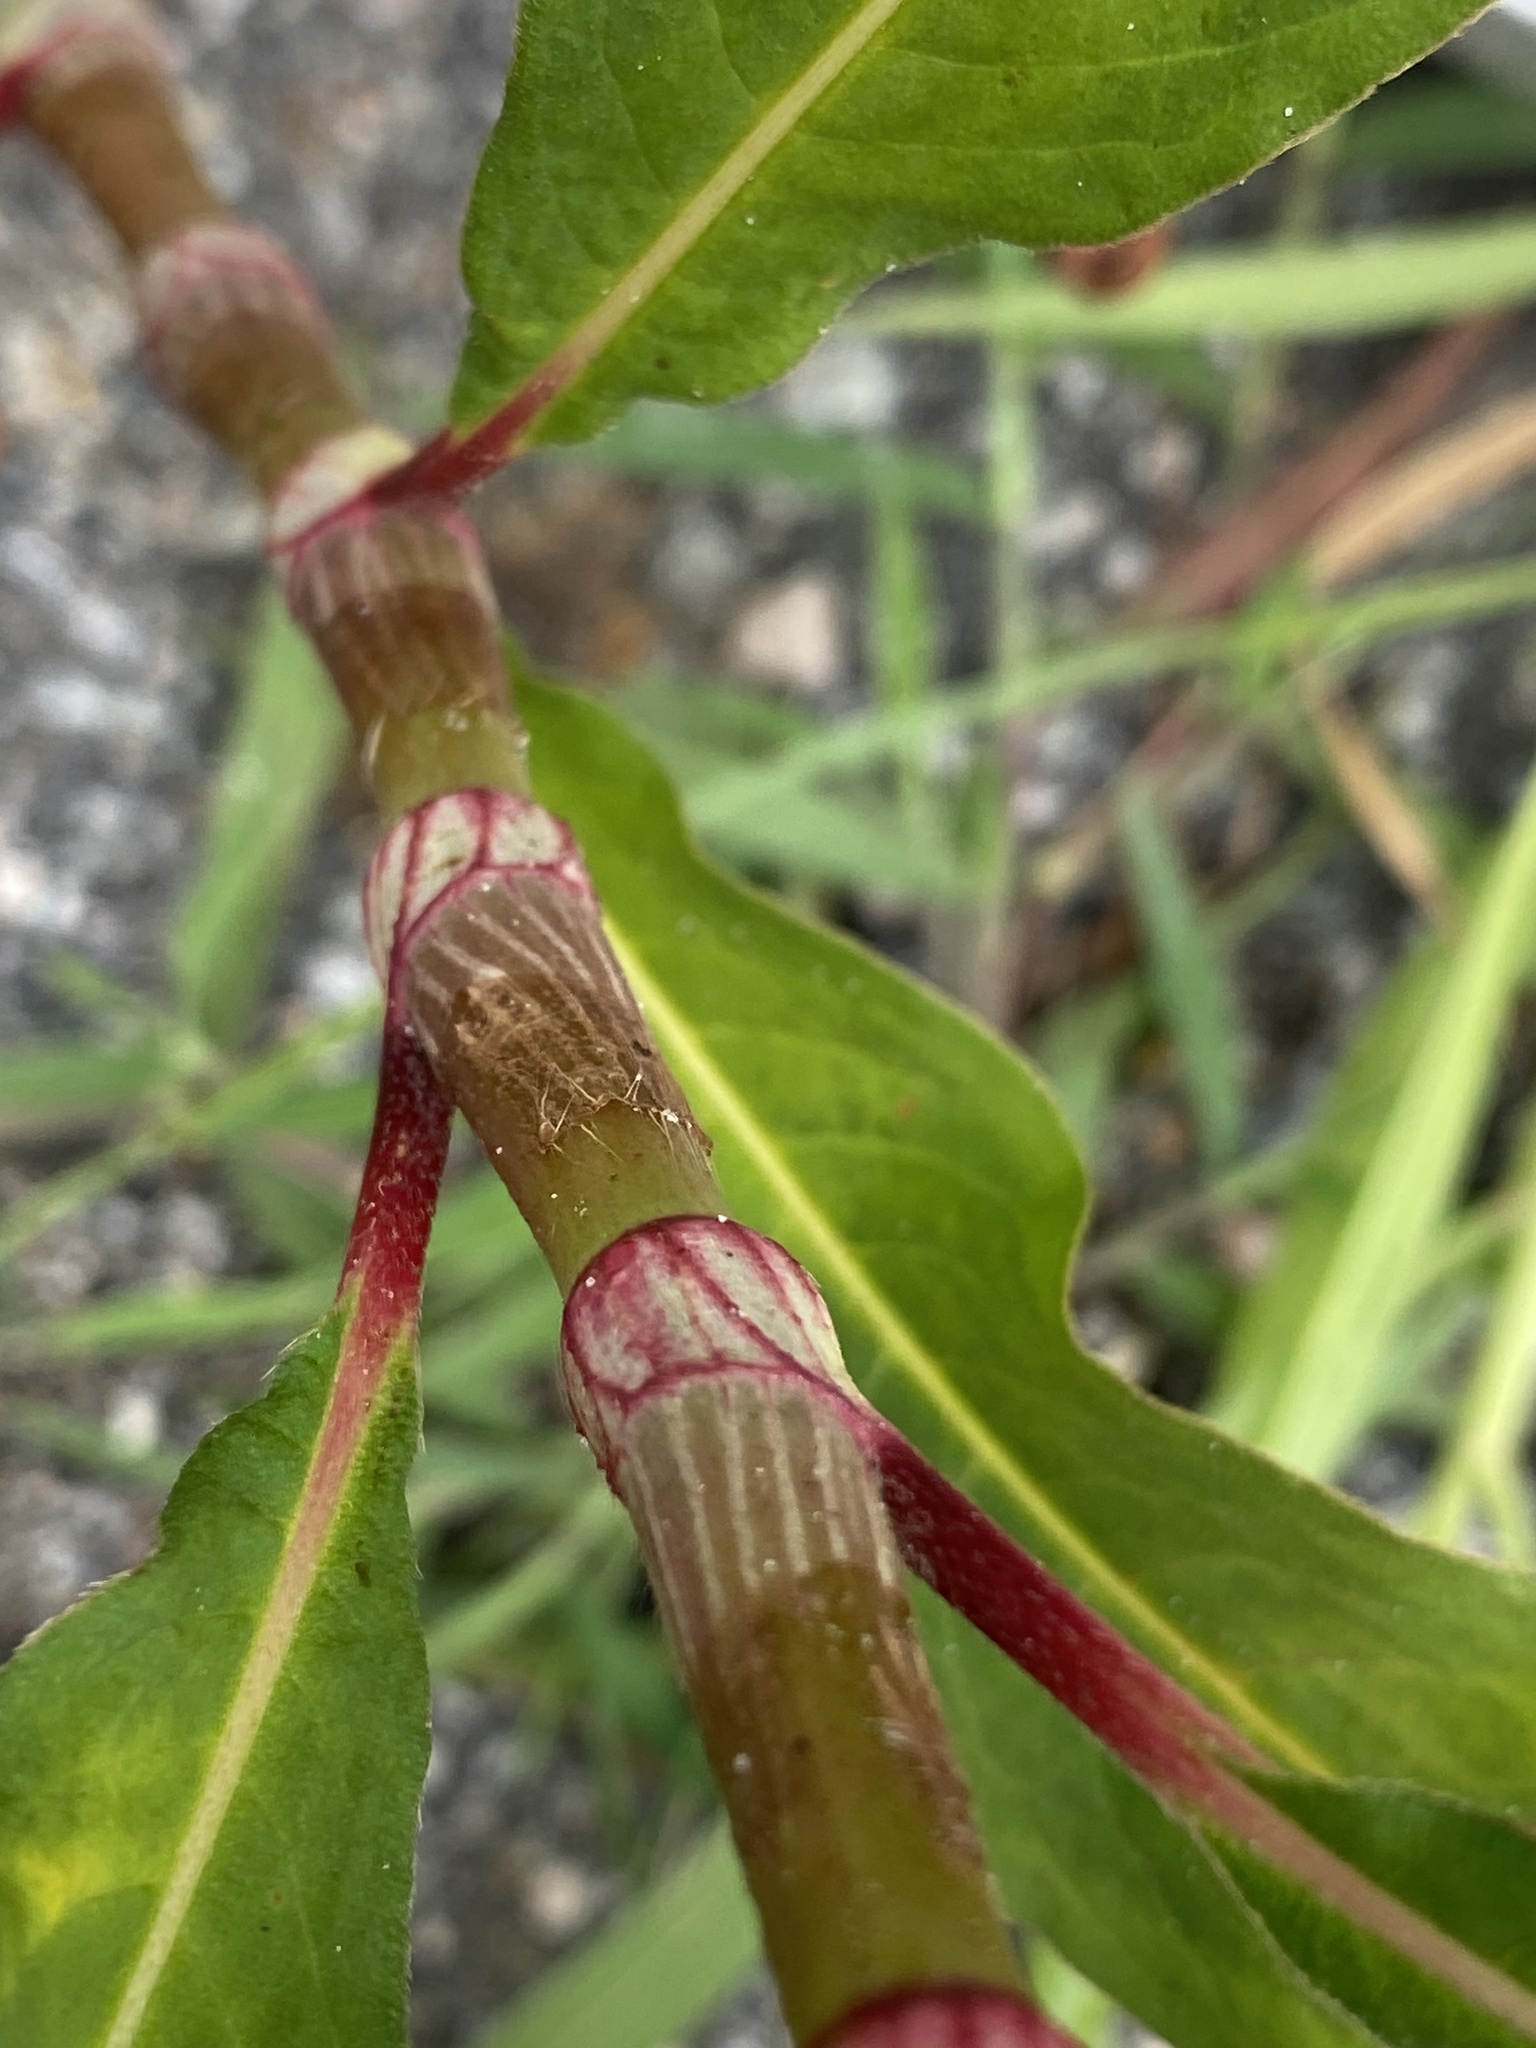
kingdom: Plantae
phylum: Tracheophyta
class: Magnoliopsida
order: Caryophyllales
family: Polygonaceae
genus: Persicaria
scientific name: Persicaria extremiorientalis
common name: Far-eastern smartweed
